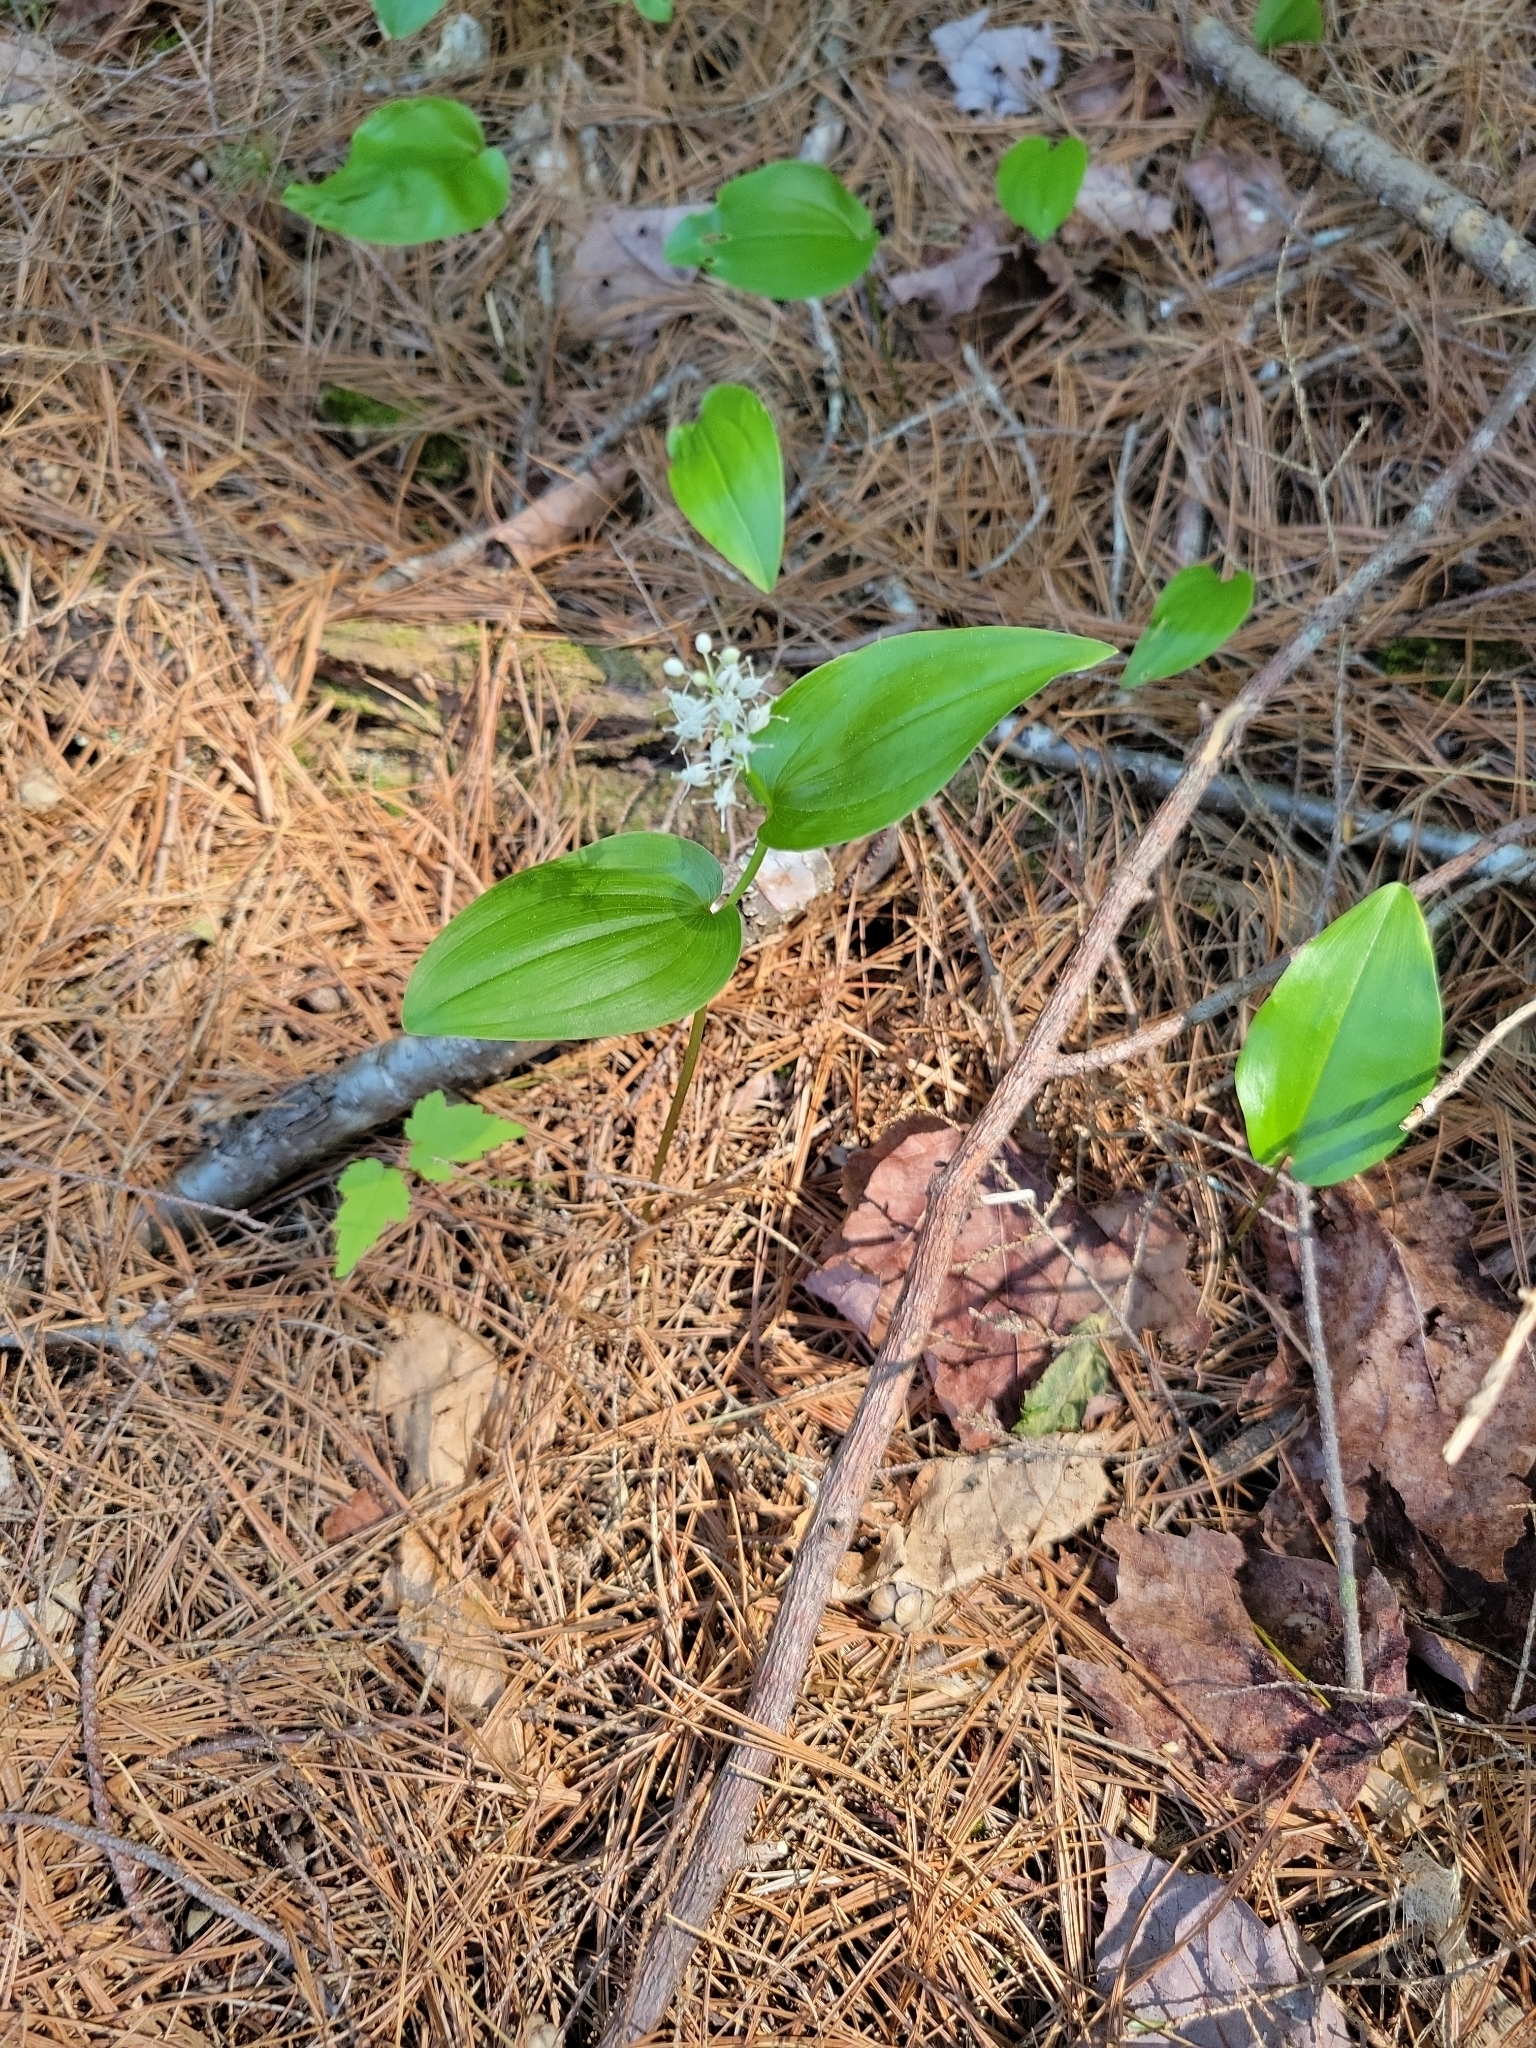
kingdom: Plantae
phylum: Tracheophyta
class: Liliopsida
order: Asparagales
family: Asparagaceae
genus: Maianthemum
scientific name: Maianthemum canadense
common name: False lily-of-the-valley
